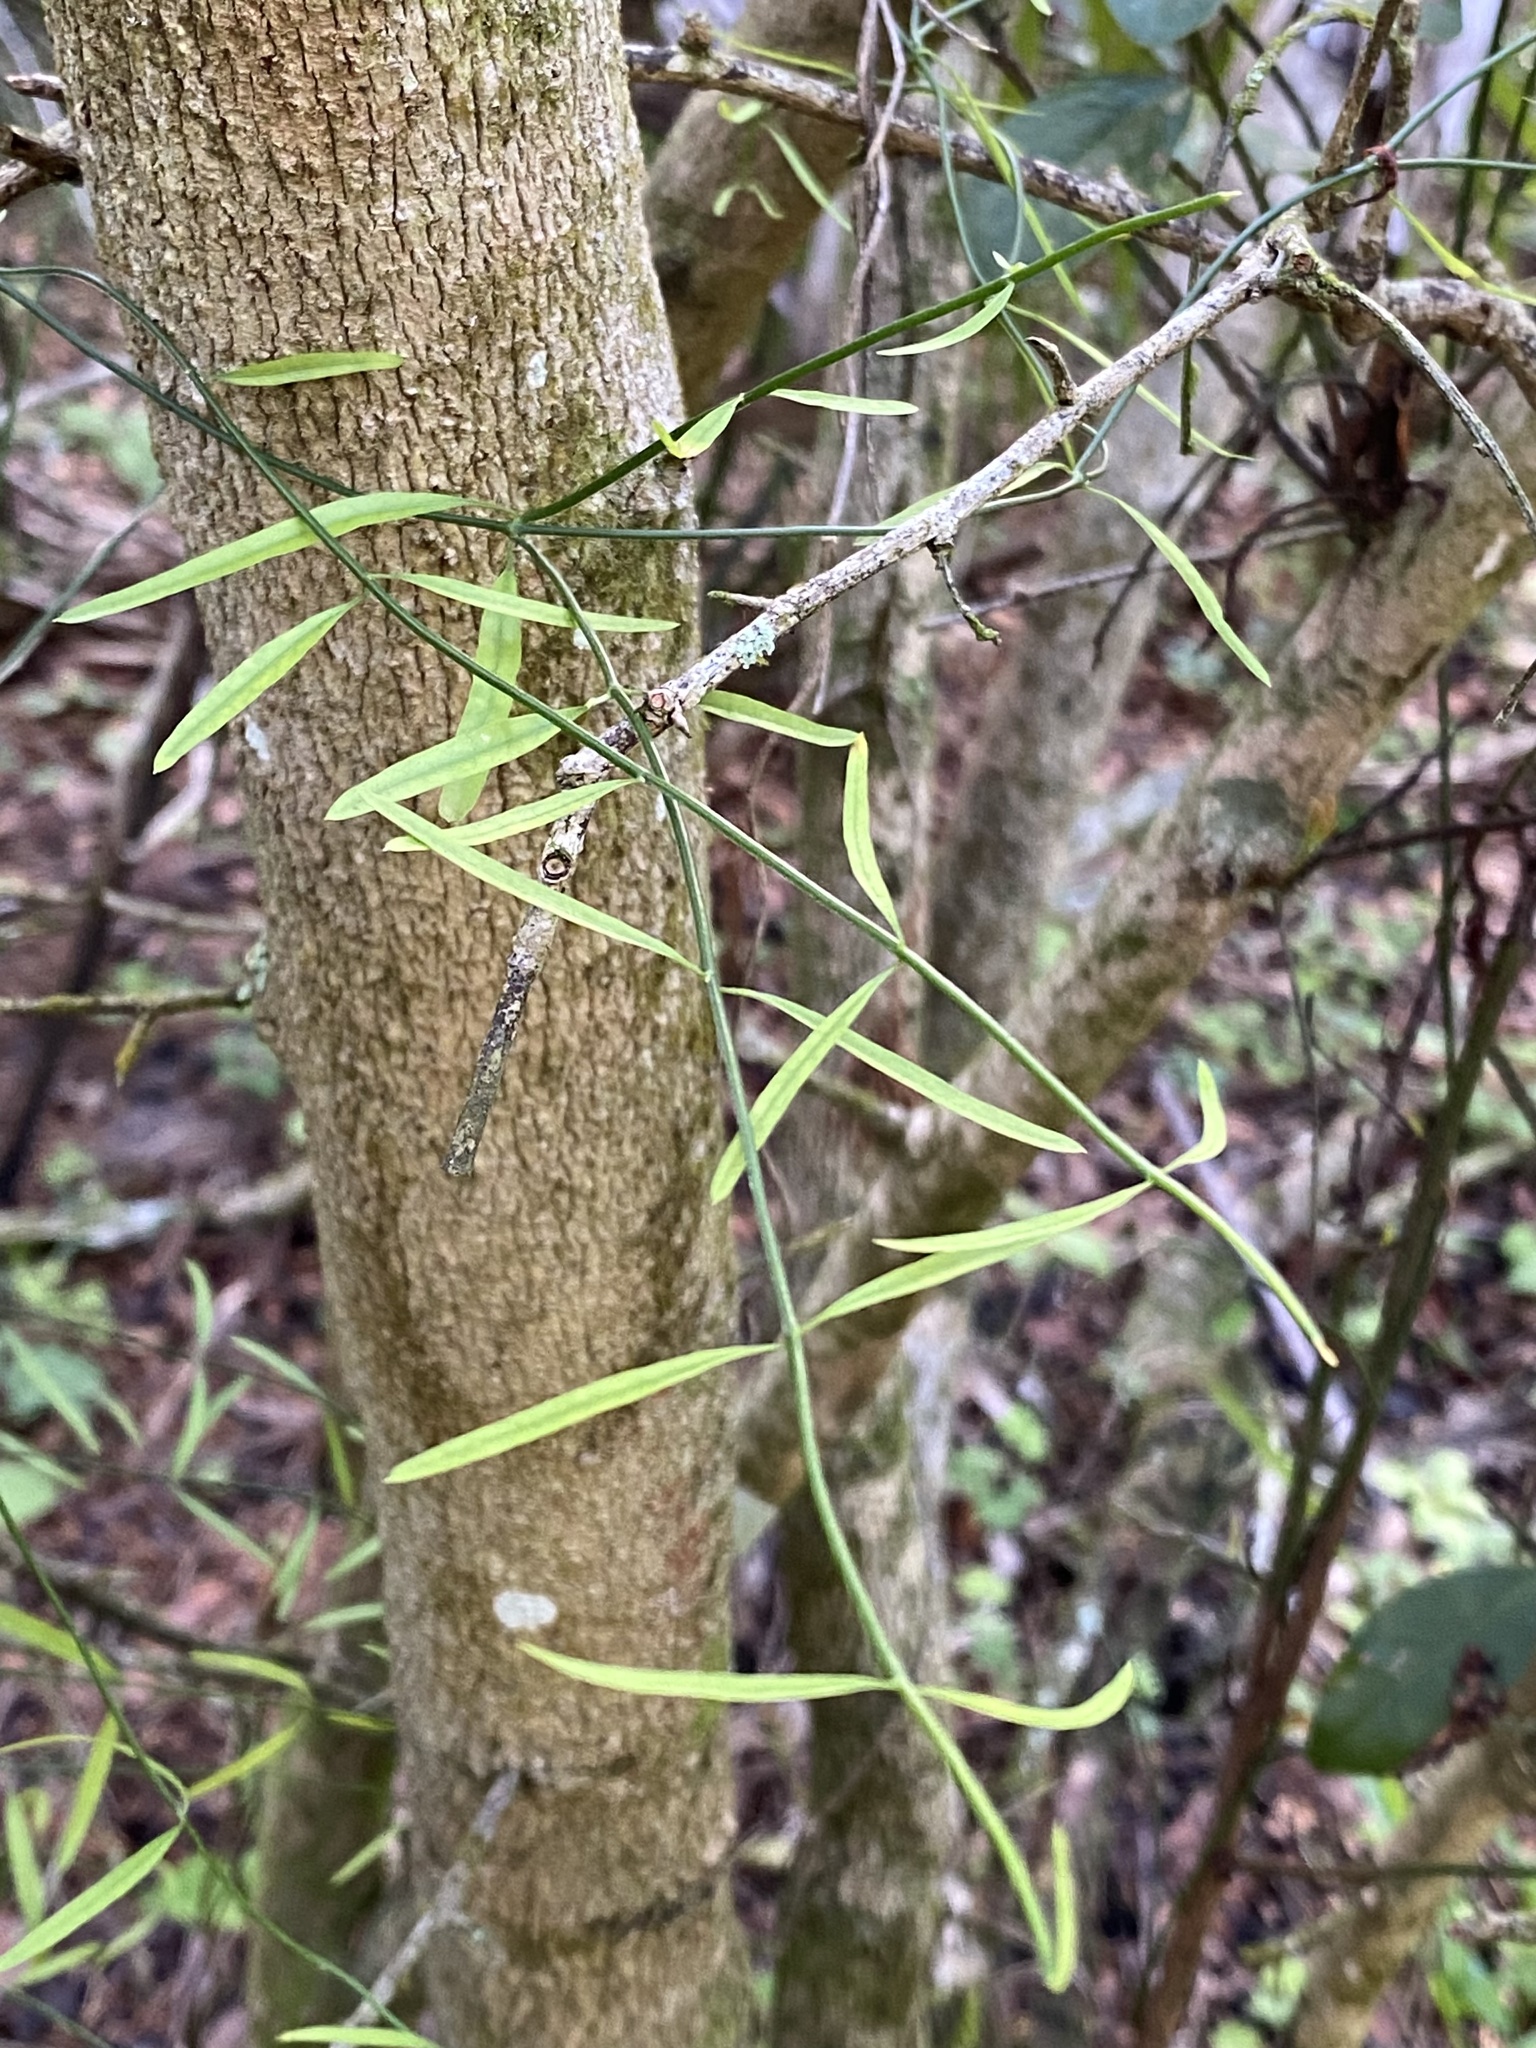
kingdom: Plantae
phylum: Tracheophyta
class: Magnoliopsida
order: Gentianales
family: Apocynaceae
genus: Orthosia
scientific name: Orthosia scoparia
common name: Leafless swallow-wort
